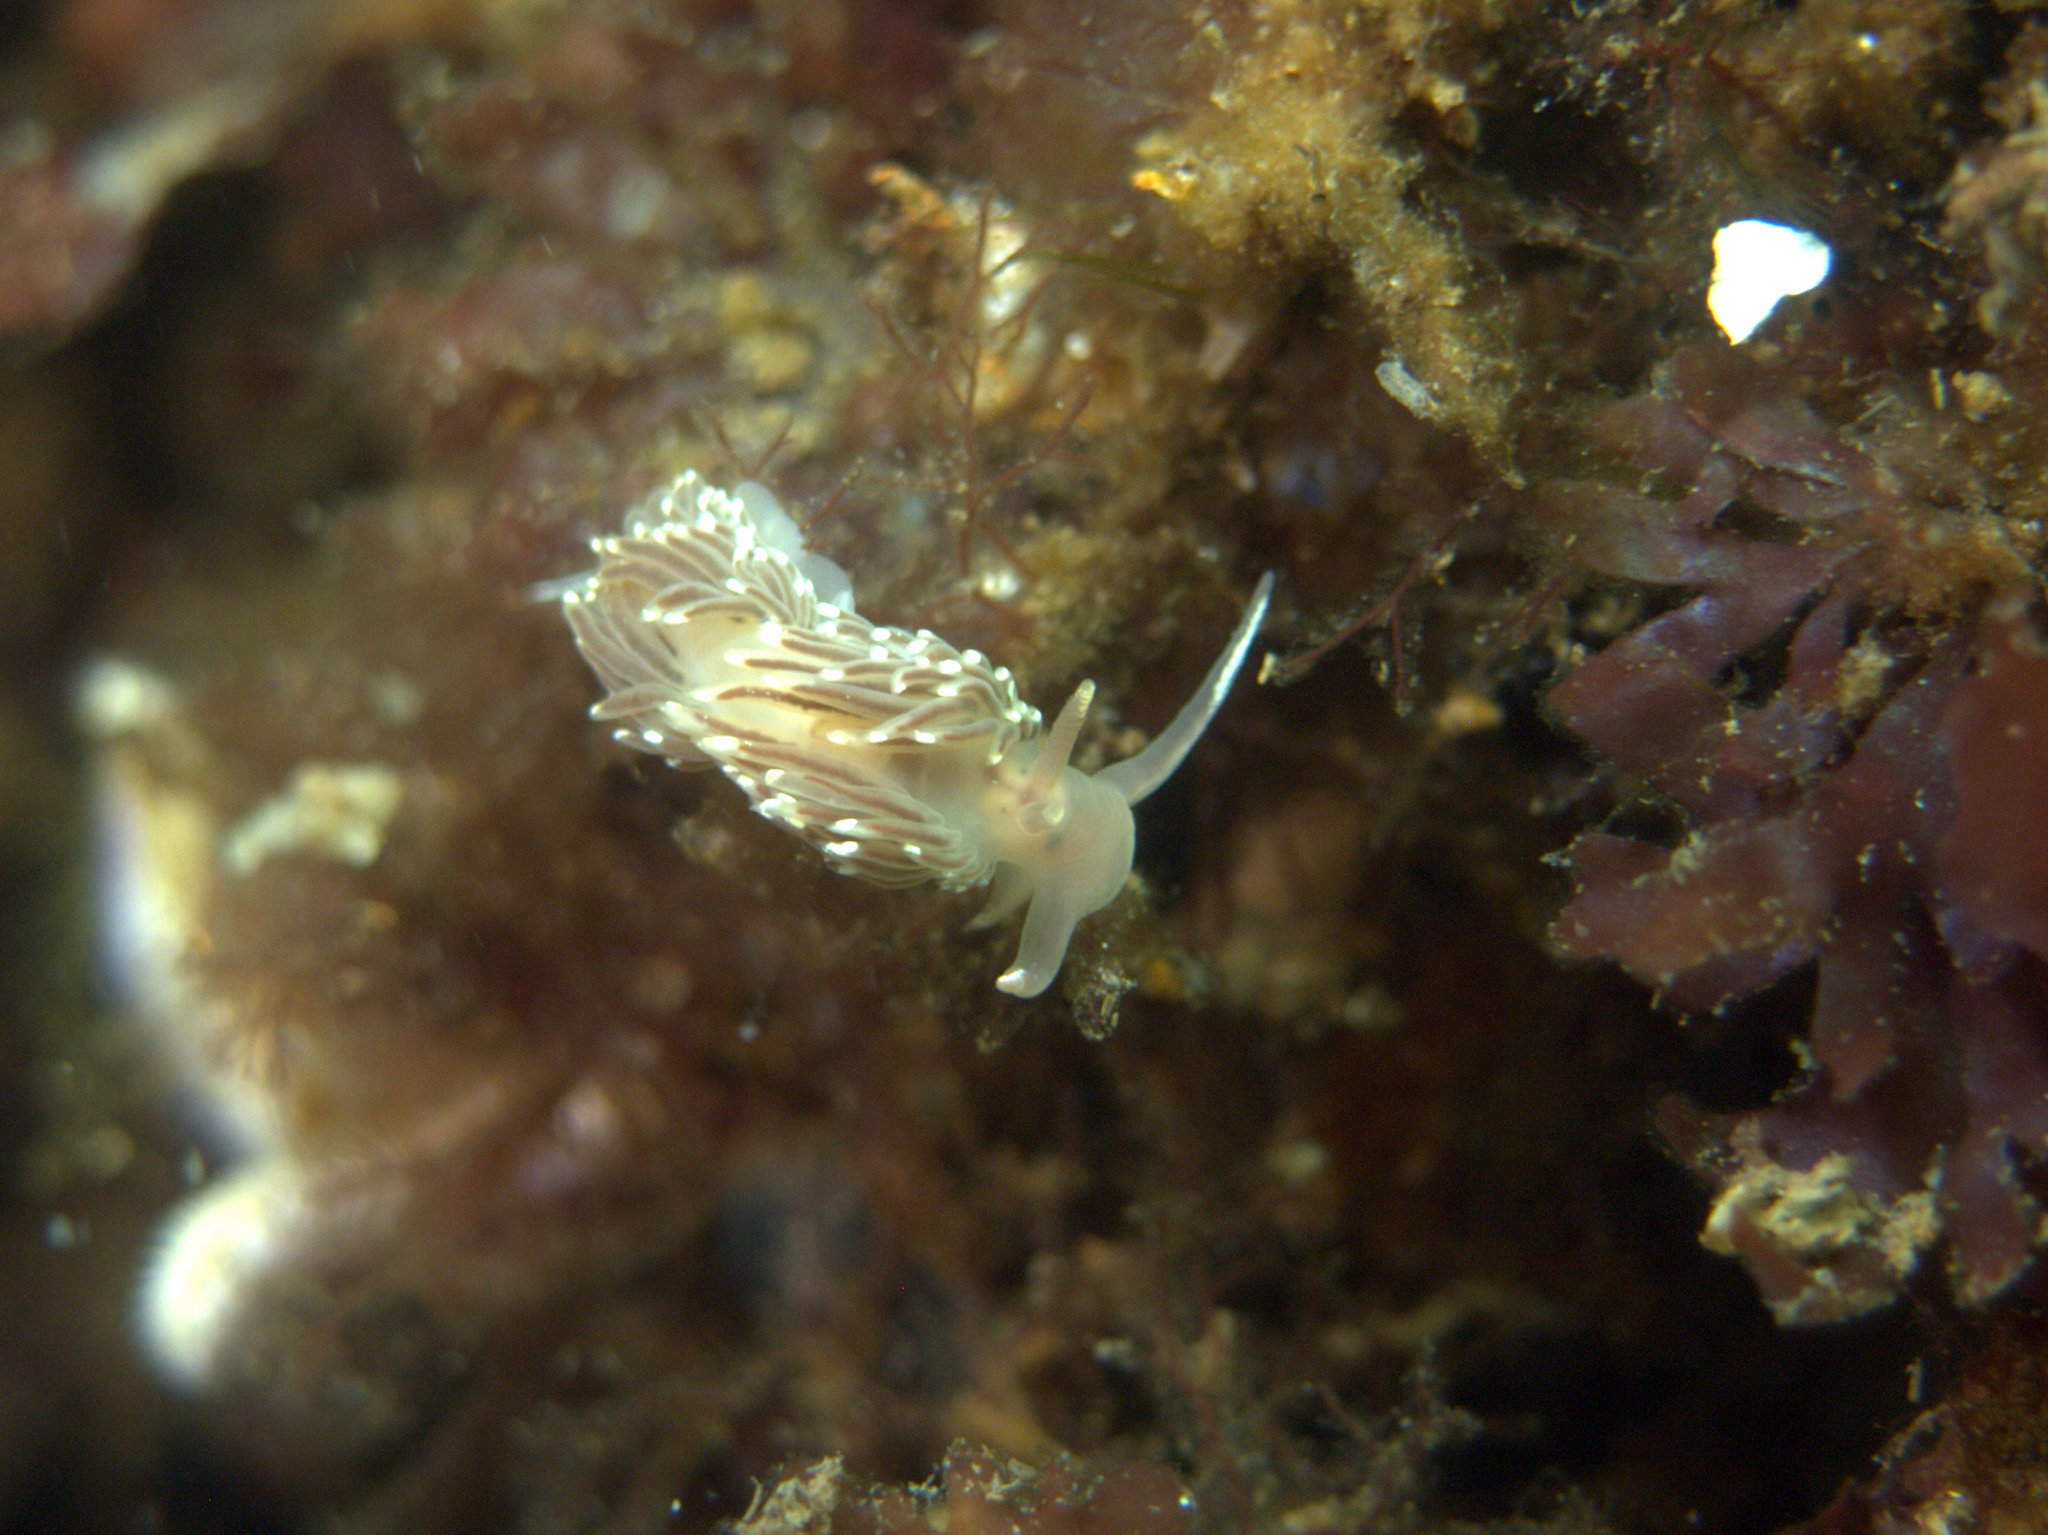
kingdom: Animalia
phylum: Mollusca
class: Gastropoda
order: Nudibranchia
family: Facelinidae
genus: Facelina
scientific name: Facelina bostoniensis
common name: Boston facelina
